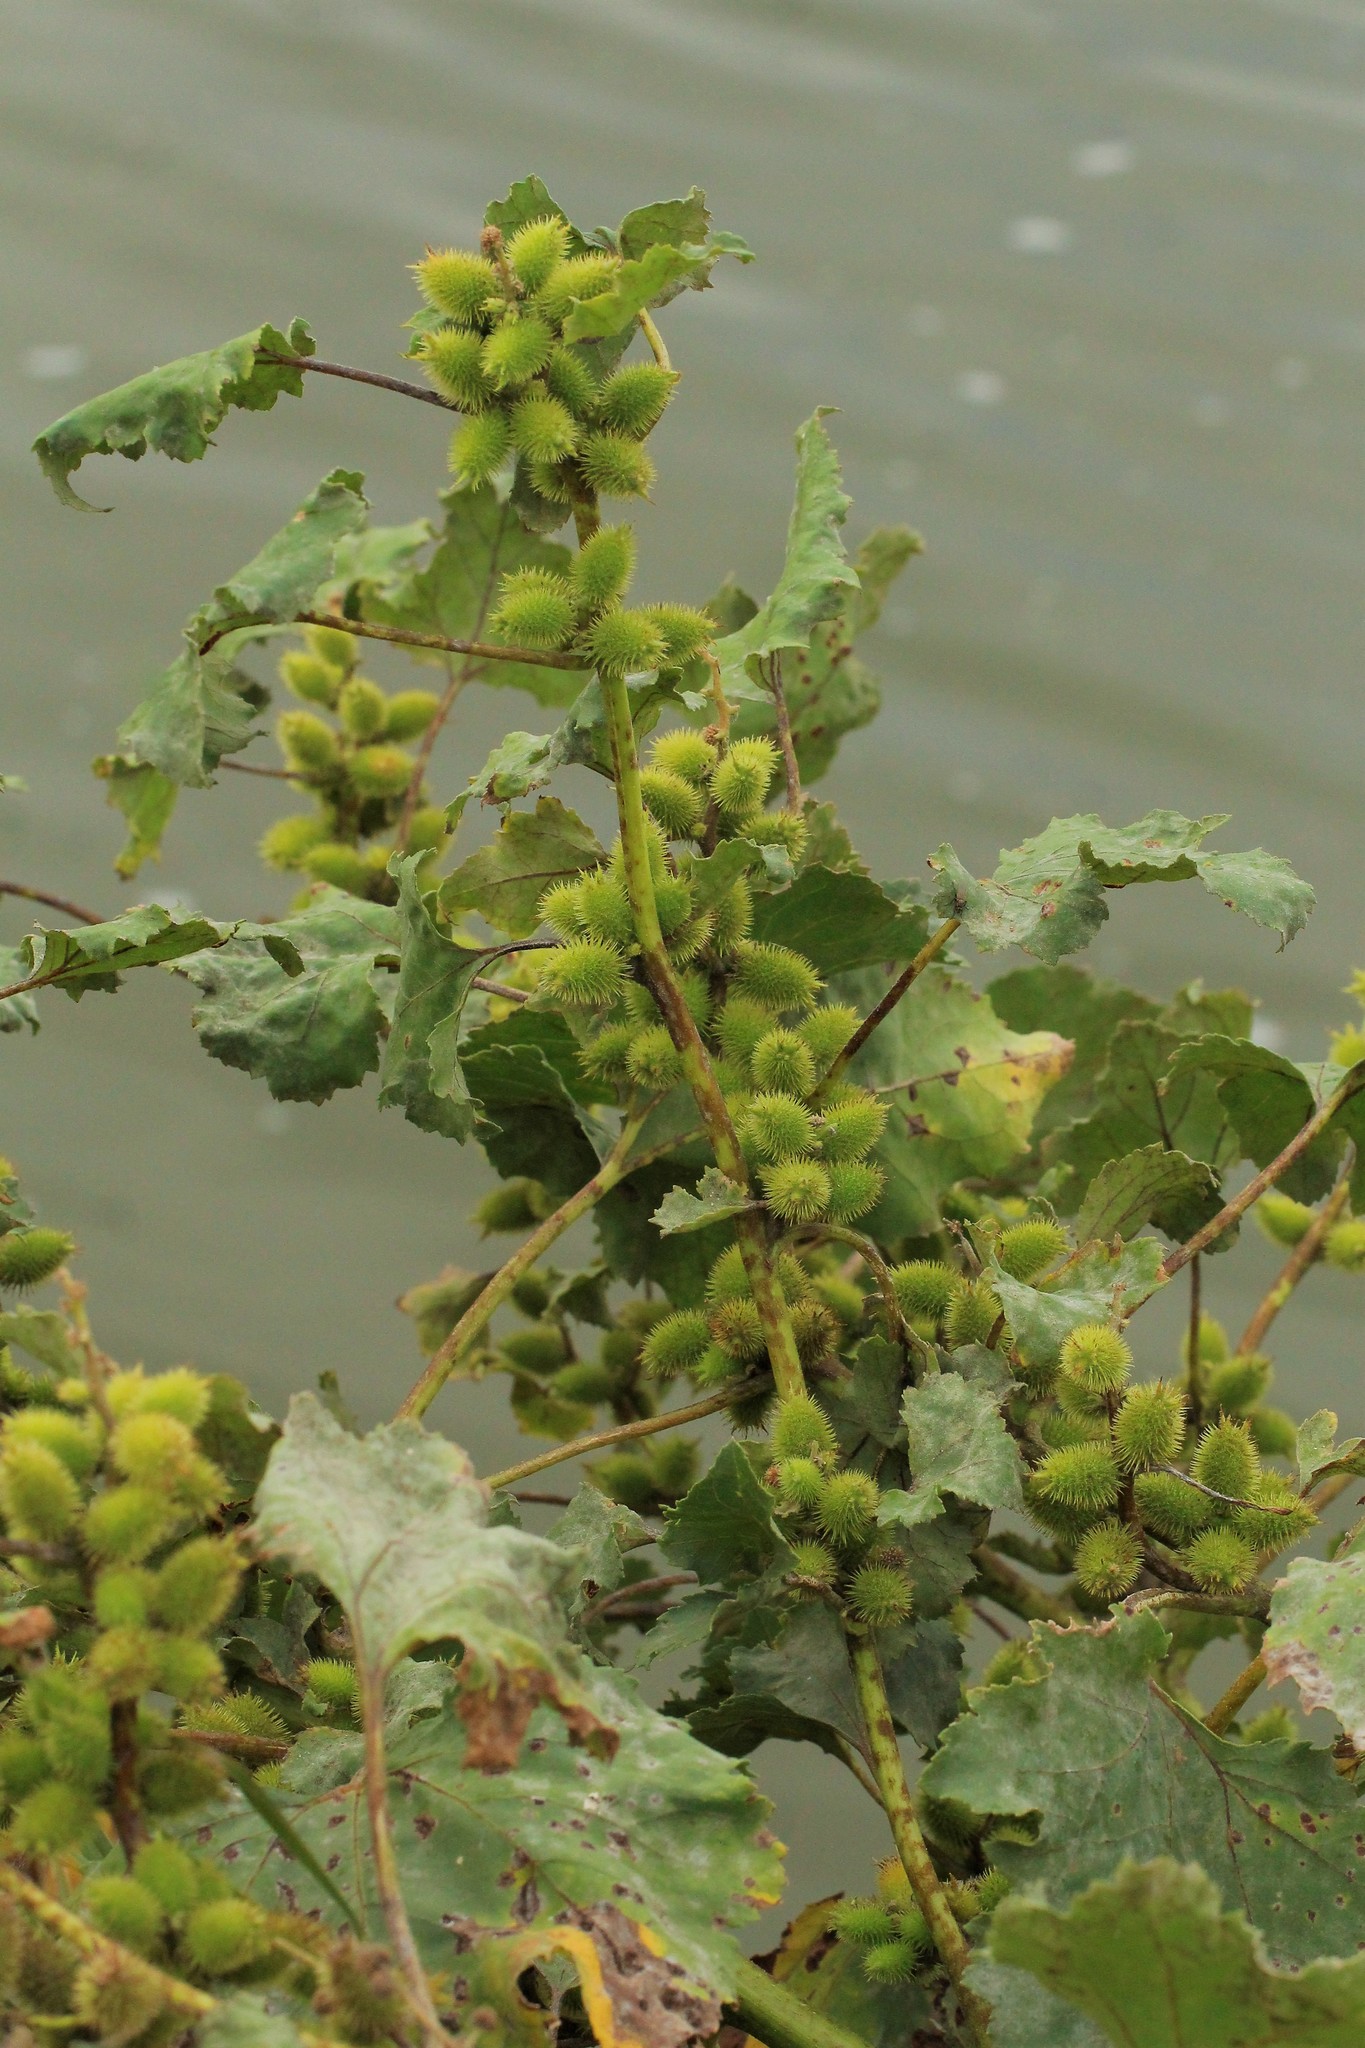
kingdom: Plantae
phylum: Tracheophyta
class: Magnoliopsida
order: Asterales
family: Asteraceae
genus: Xanthium
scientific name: Xanthium orientale
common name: Californian burr
